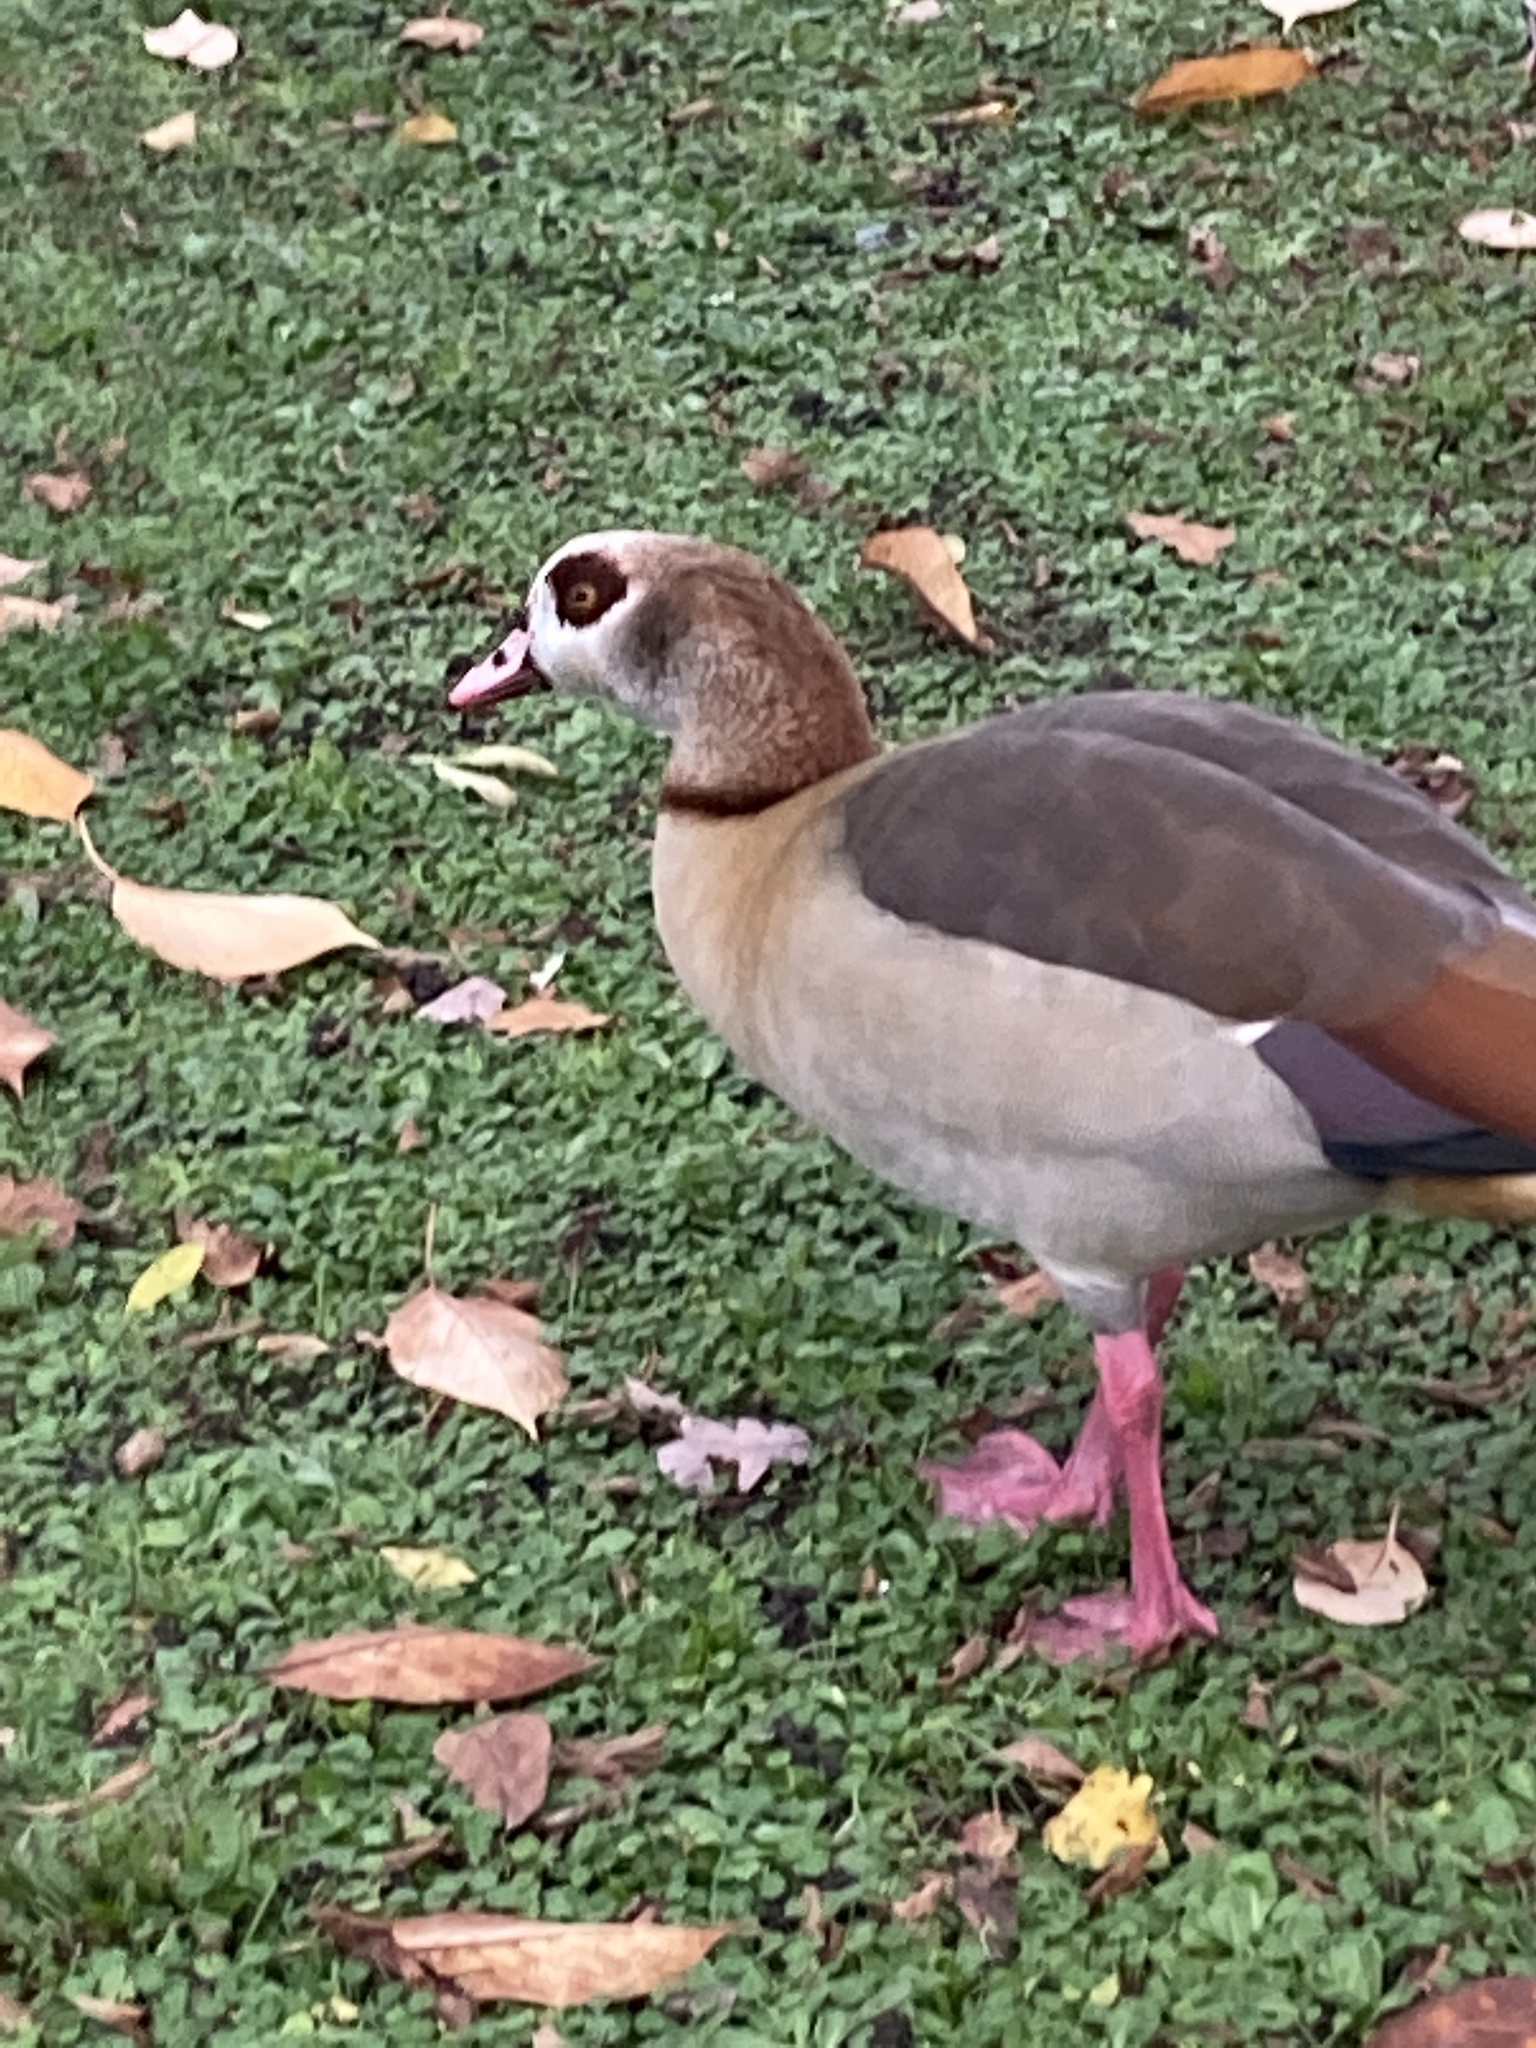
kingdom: Animalia
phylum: Chordata
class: Aves
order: Anseriformes
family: Anatidae
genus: Alopochen
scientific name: Alopochen aegyptiaca
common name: Egyptian goose
